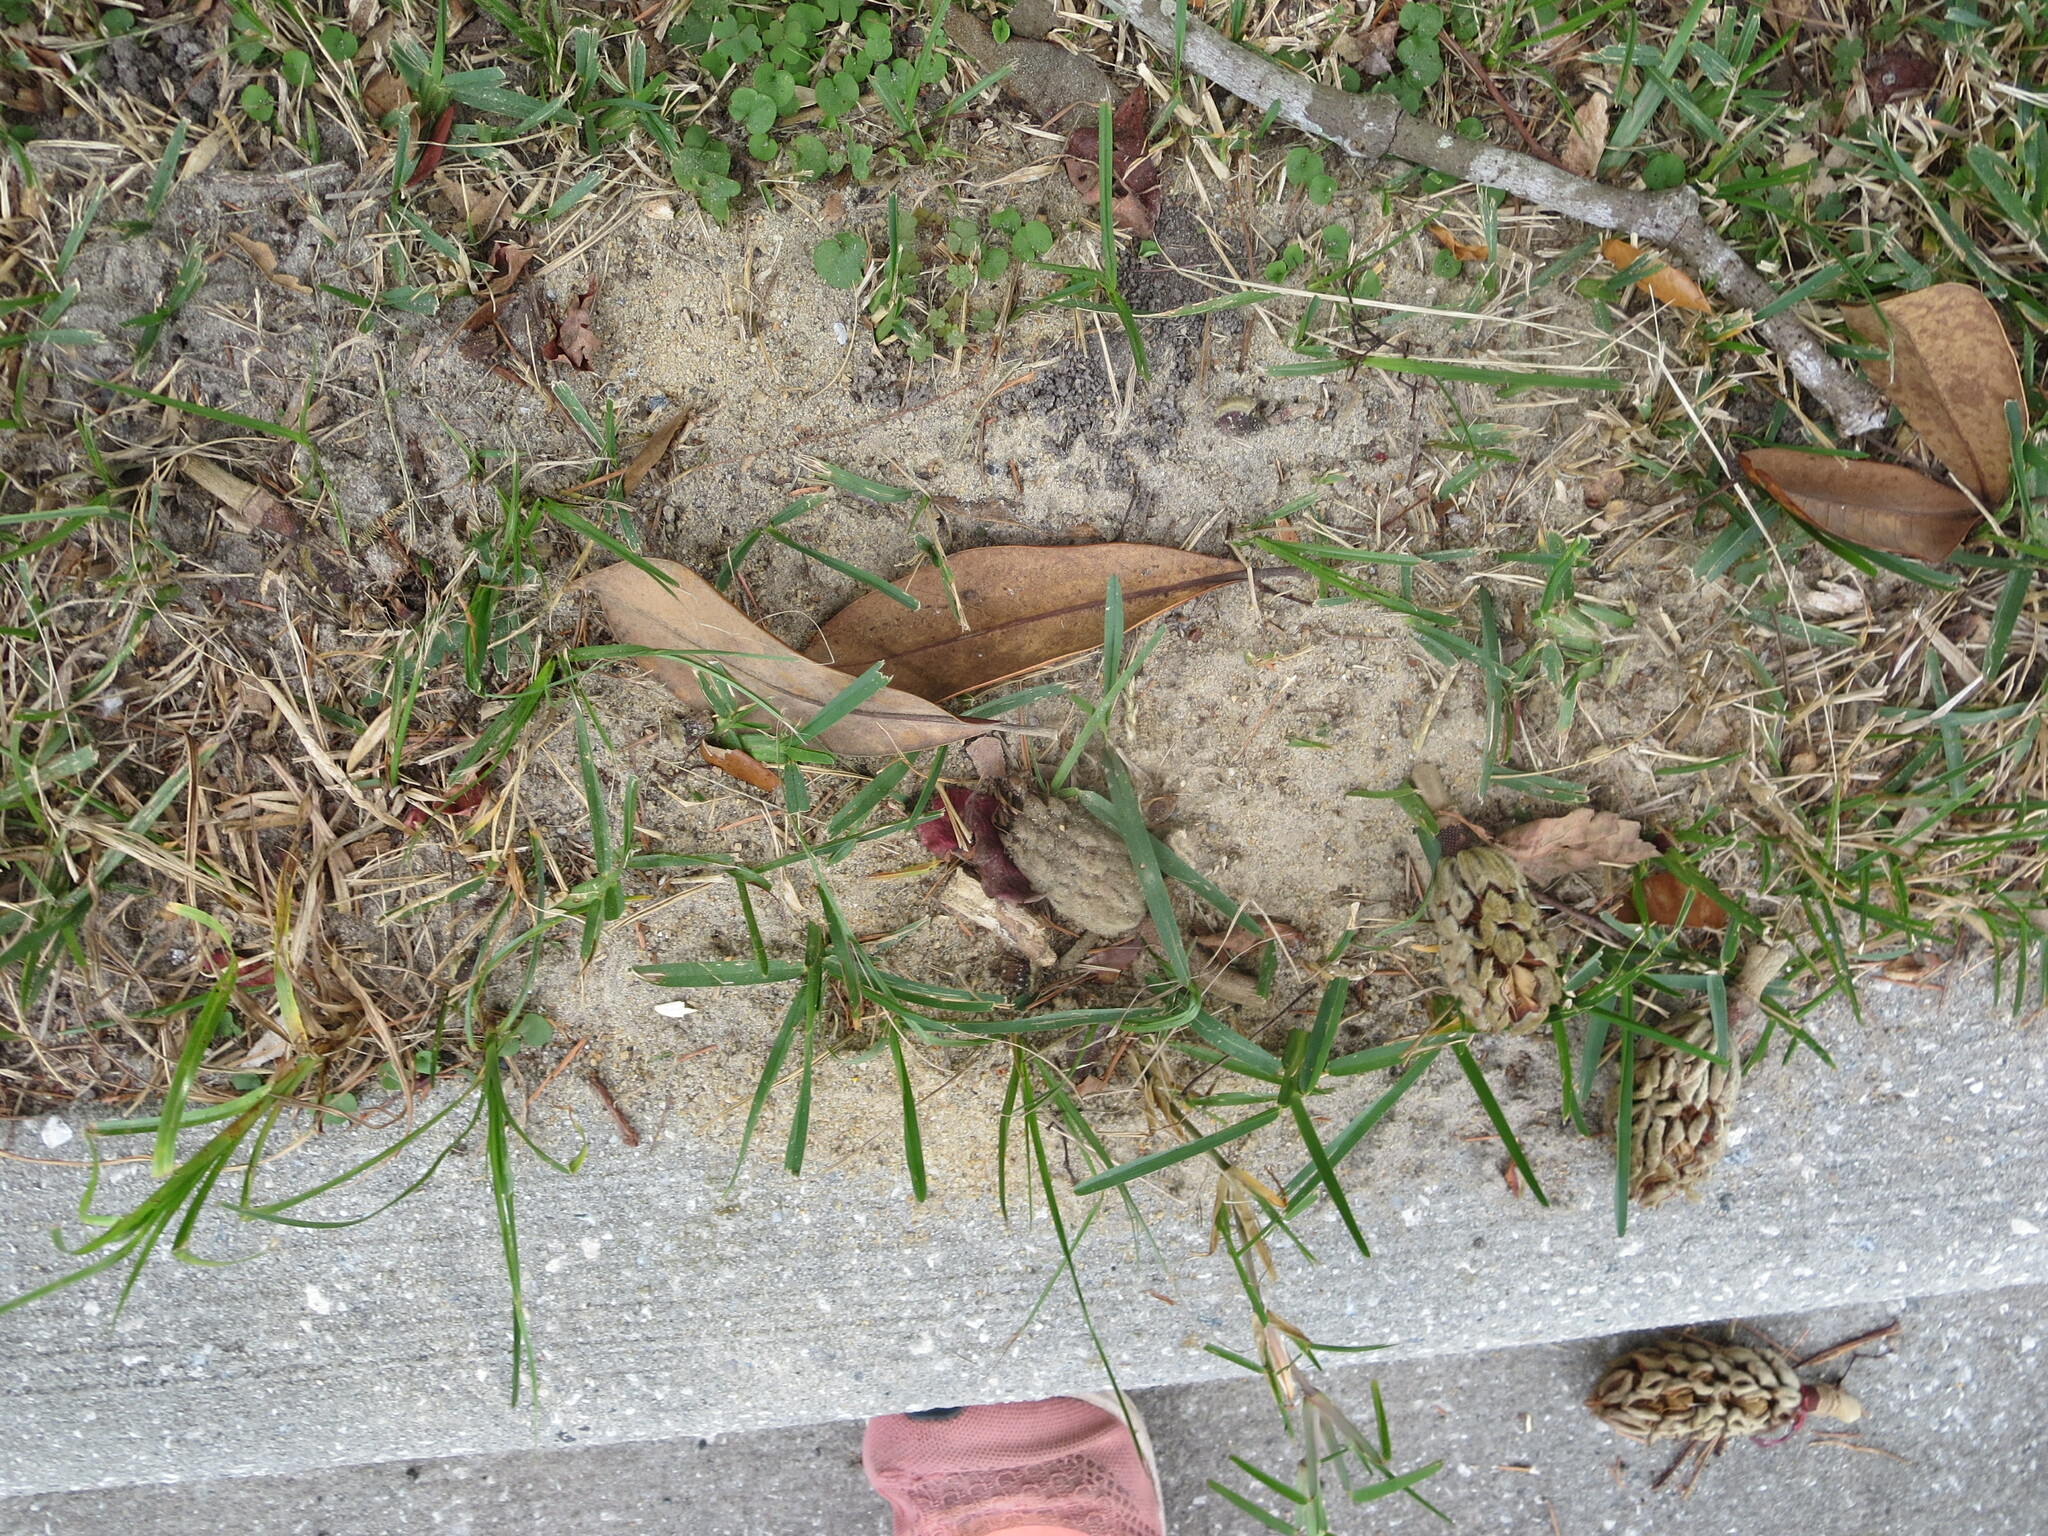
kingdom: Animalia
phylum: Arthropoda
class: Insecta
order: Hymenoptera
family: Formicidae
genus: Solenopsis
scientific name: Solenopsis invicta
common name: Red imported fire ant
